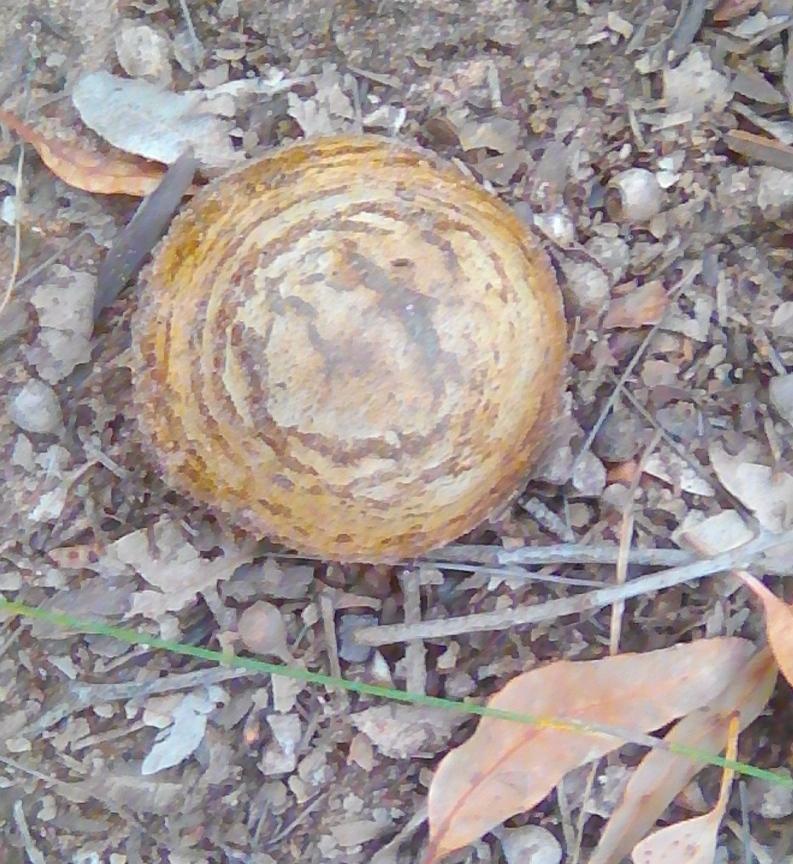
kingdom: Fungi
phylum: Basidiomycota
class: Agaricomycetes
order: Boletales
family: Sclerodermataceae
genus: Pisolithus
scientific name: Pisolithus arhizus
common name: Dyeball
